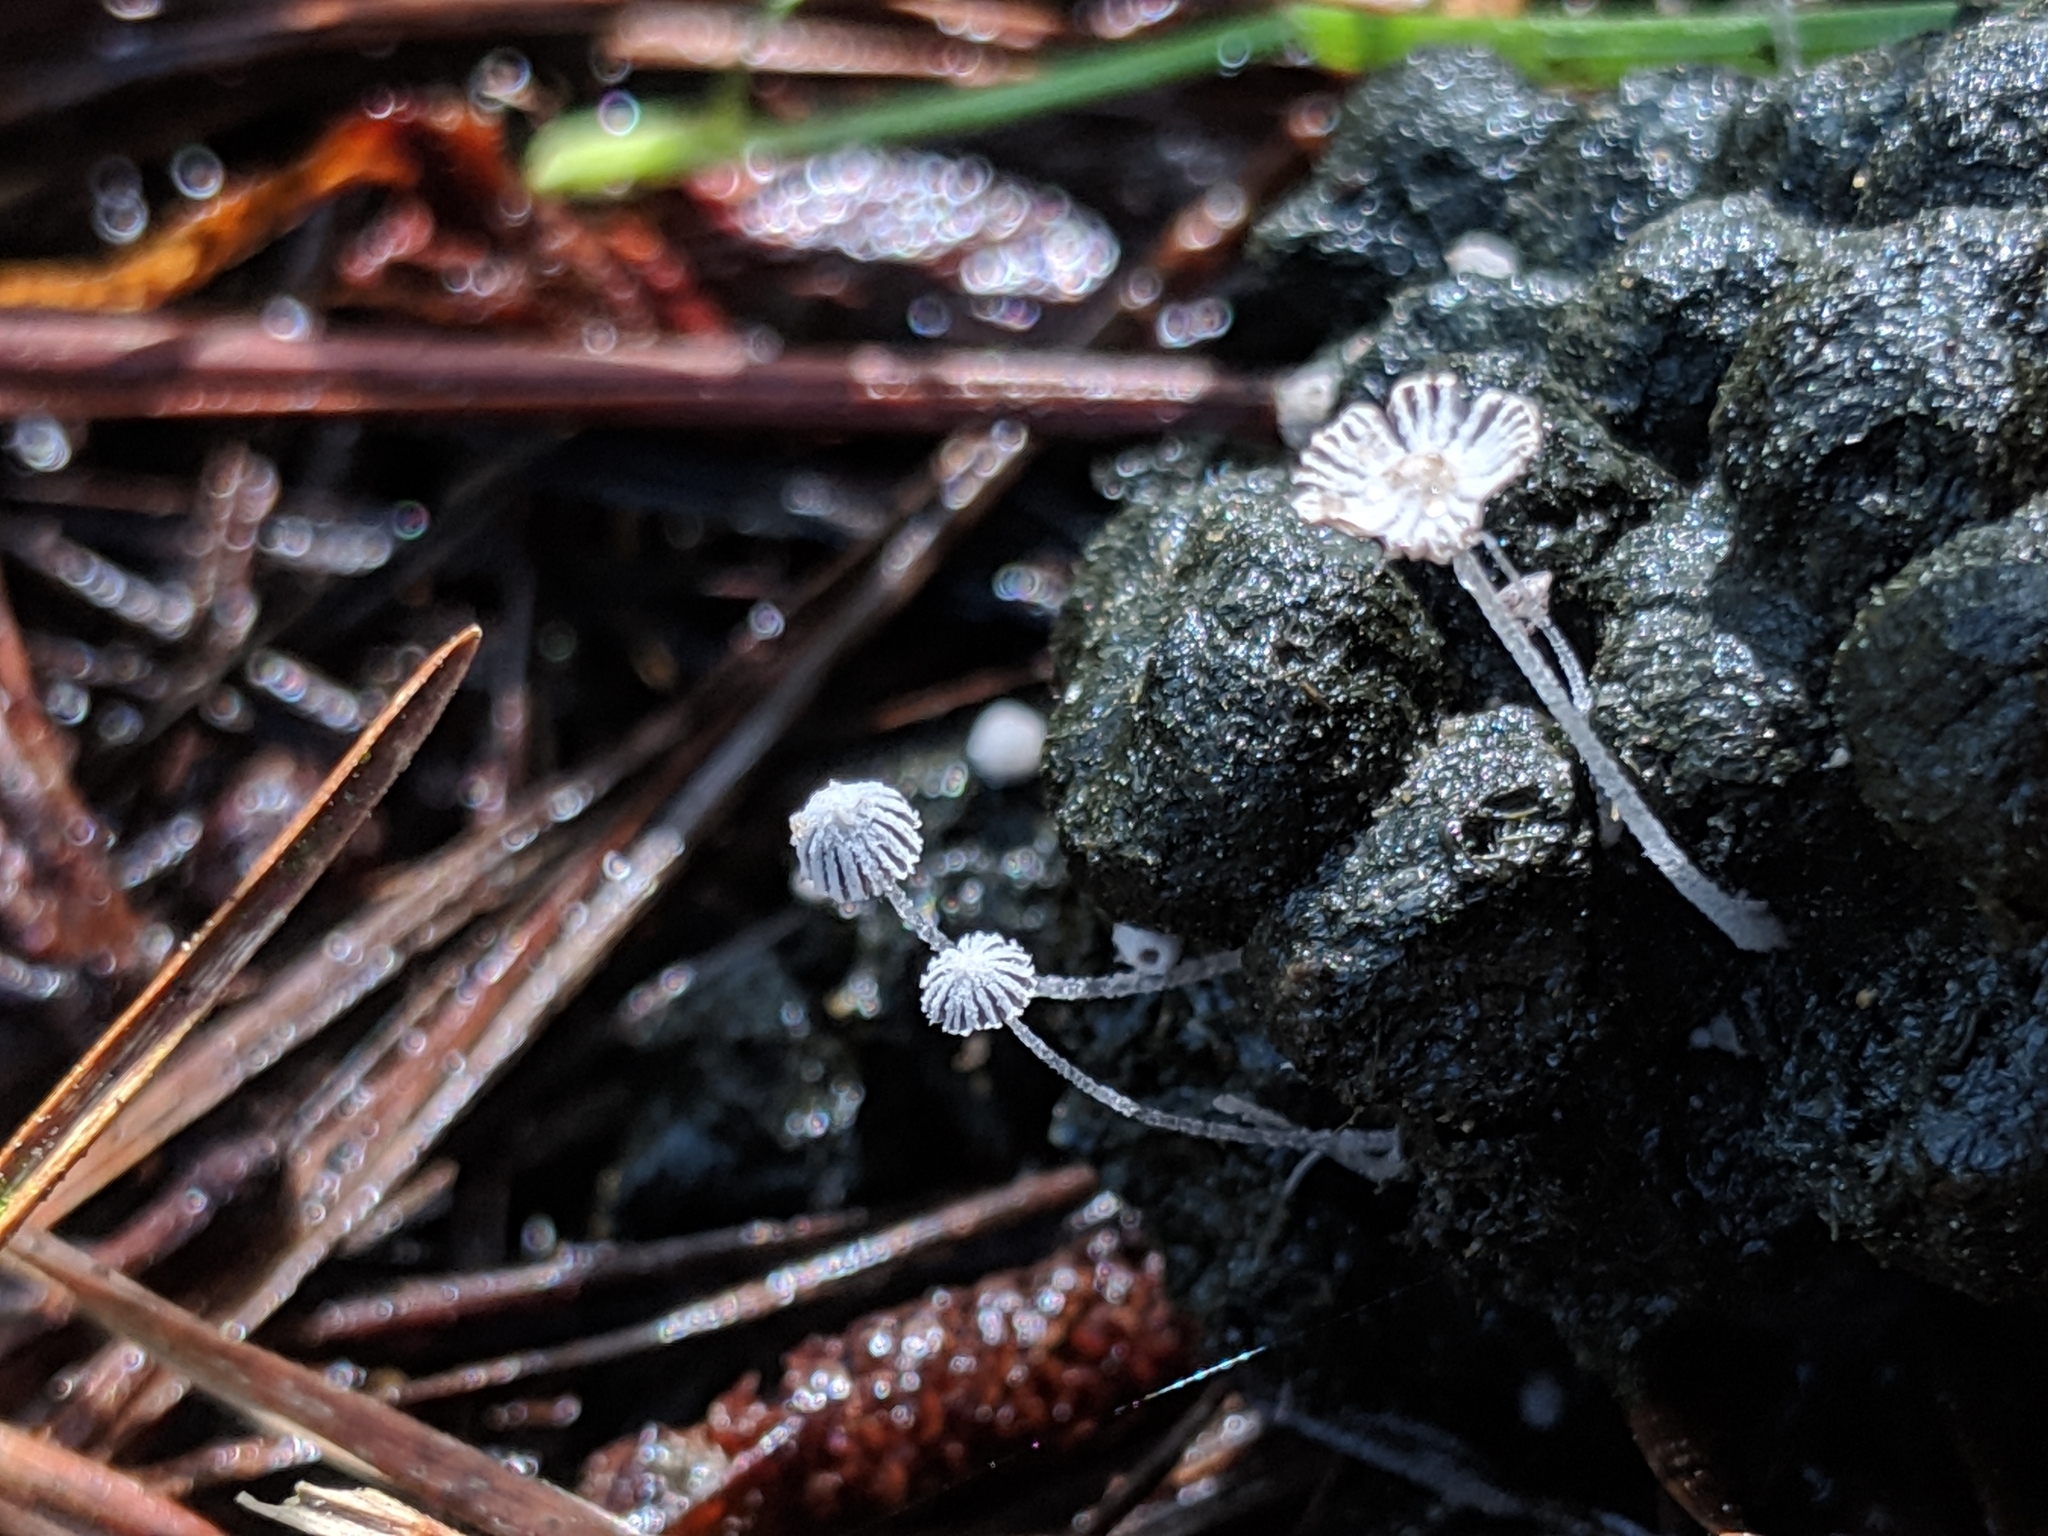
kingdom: Fungi
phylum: Basidiomycota
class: Agaricomycetes
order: Agaricales
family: Psathyrellaceae
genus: Coprinopsis
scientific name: Coprinopsis stercorea
